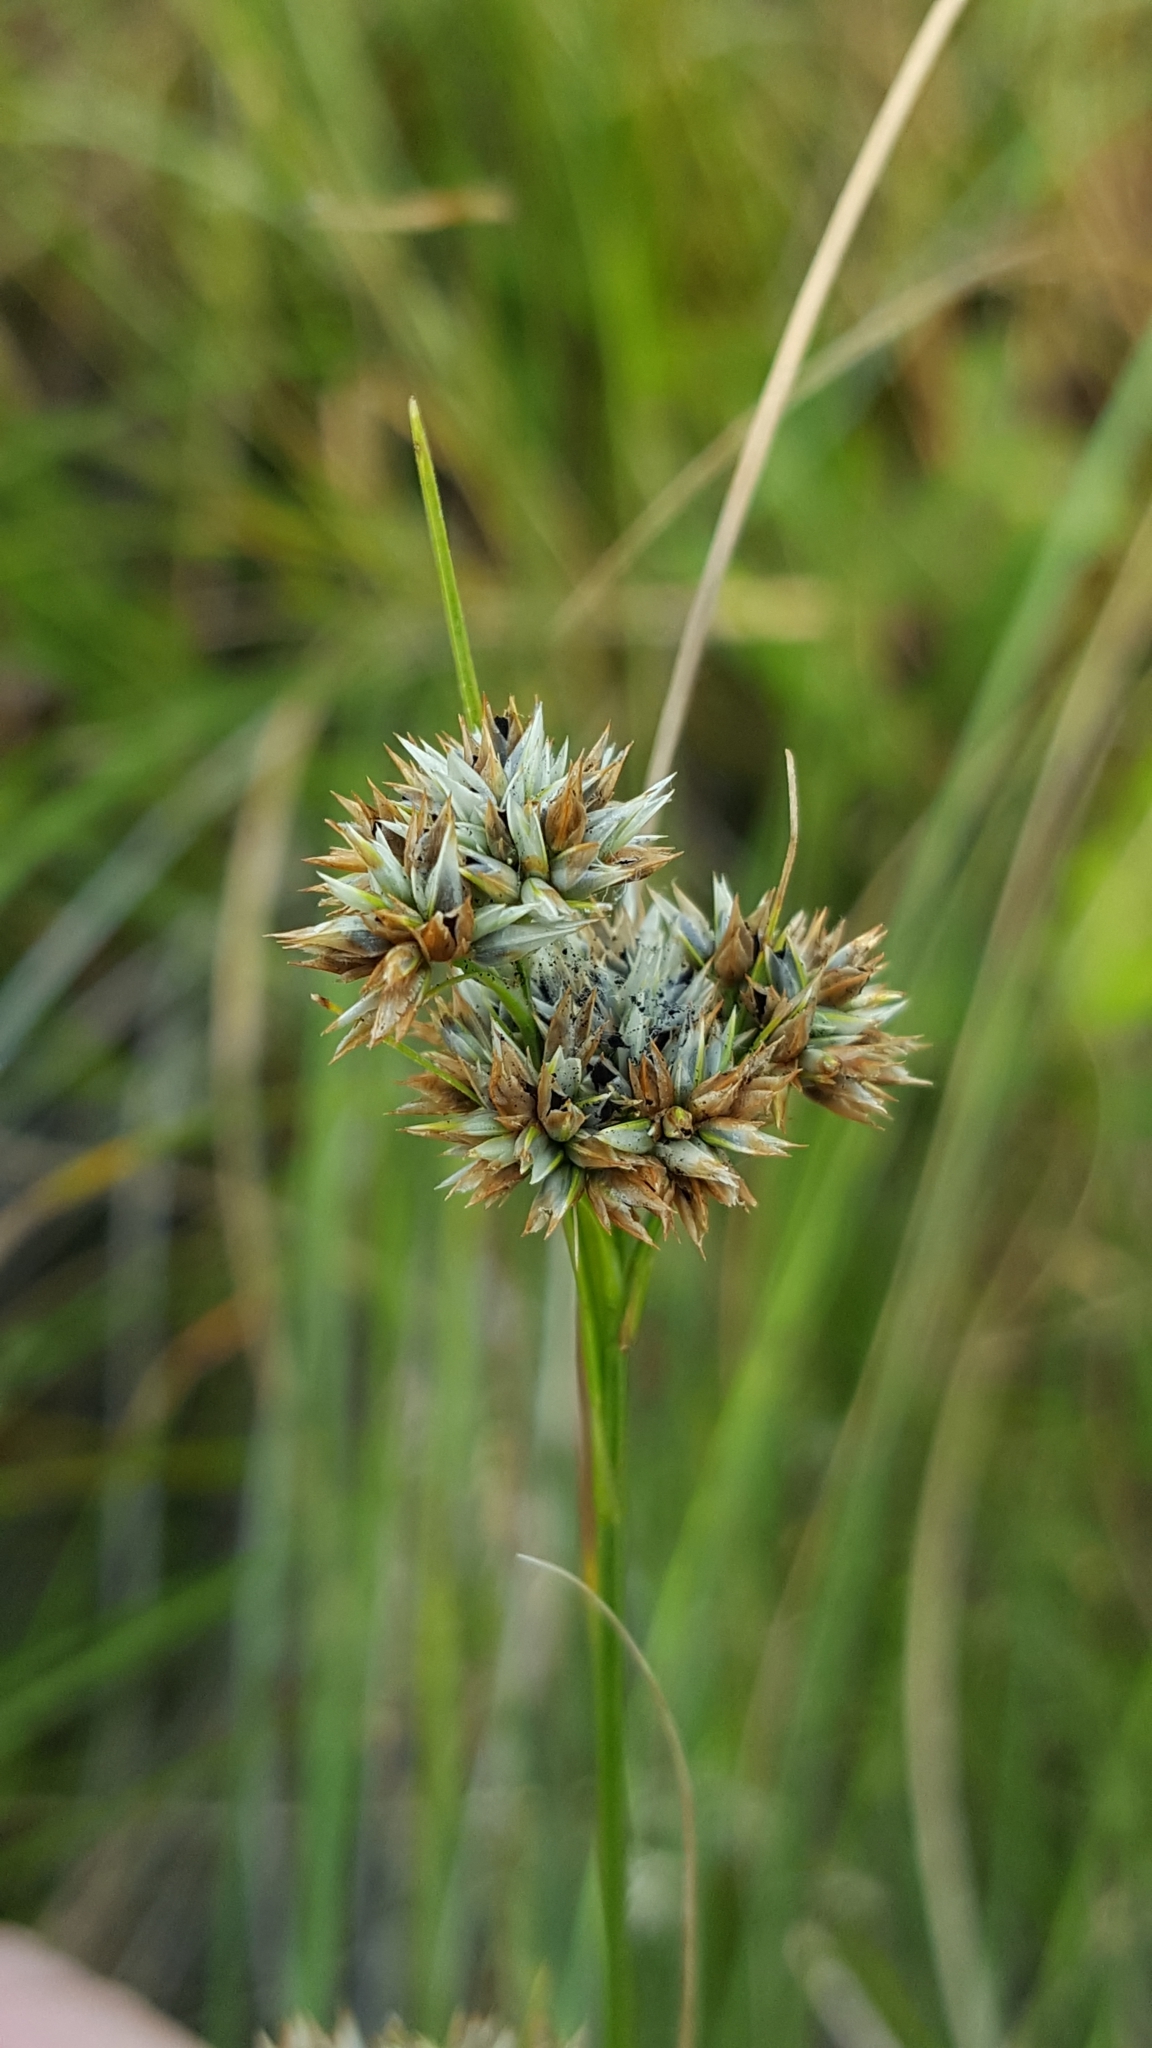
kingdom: Plantae
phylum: Tracheophyta
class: Liliopsida
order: Poales
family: Cyperaceae
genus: Rhynchospora
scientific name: Rhynchospora alba
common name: White beak-sedge
